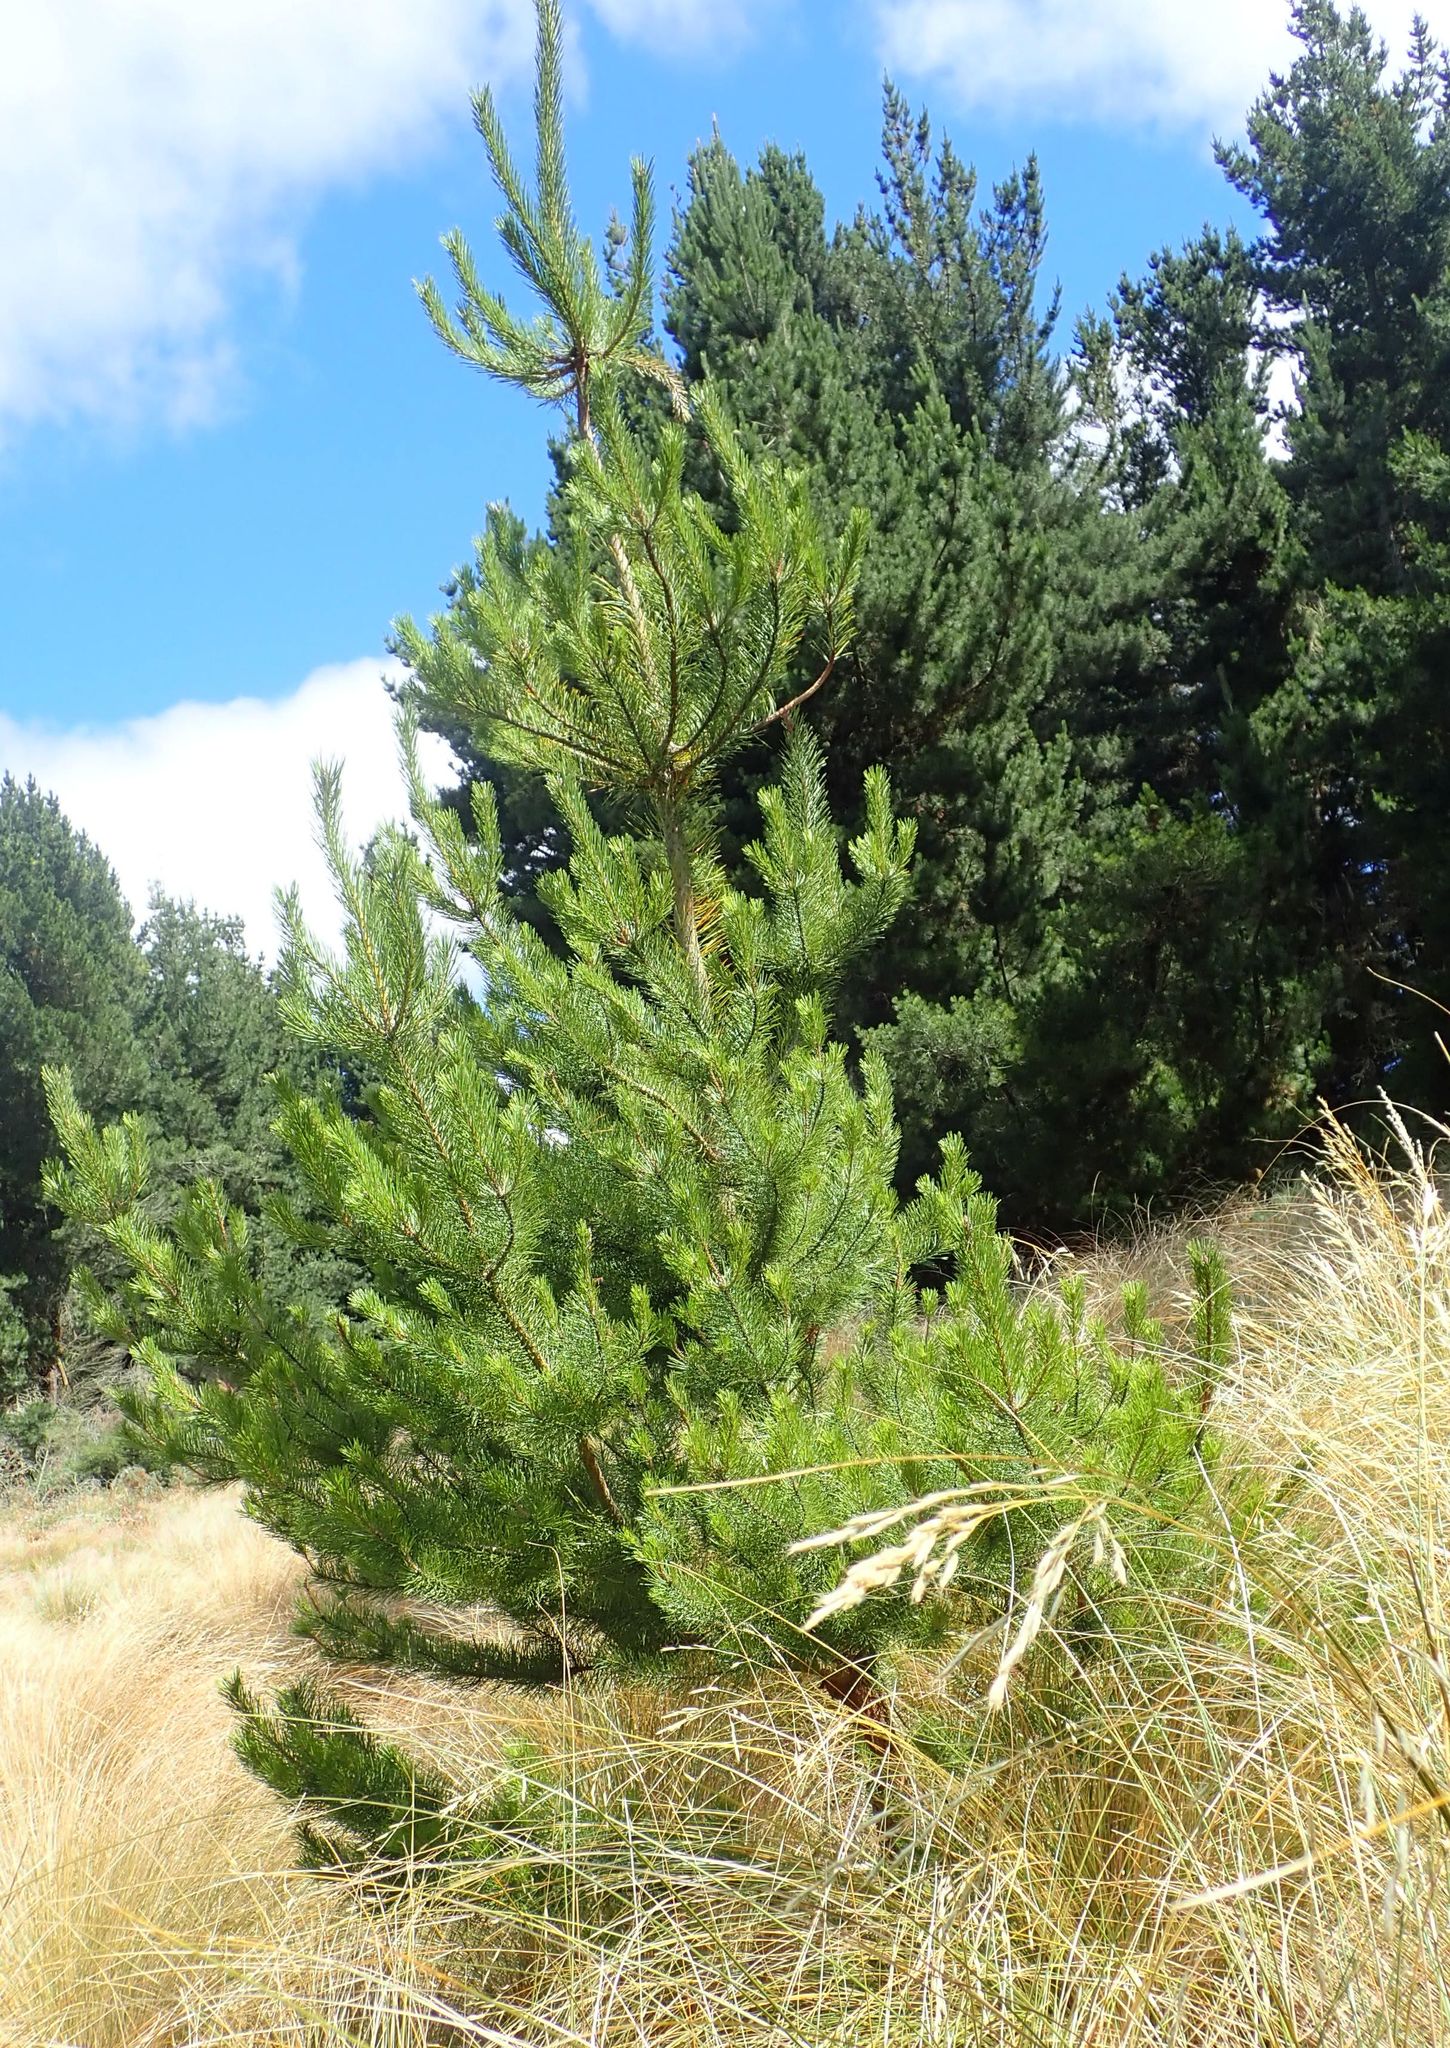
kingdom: Plantae
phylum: Tracheophyta
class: Pinopsida
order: Pinales
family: Pinaceae
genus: Pinus
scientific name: Pinus contorta
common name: Lodgepole pine
